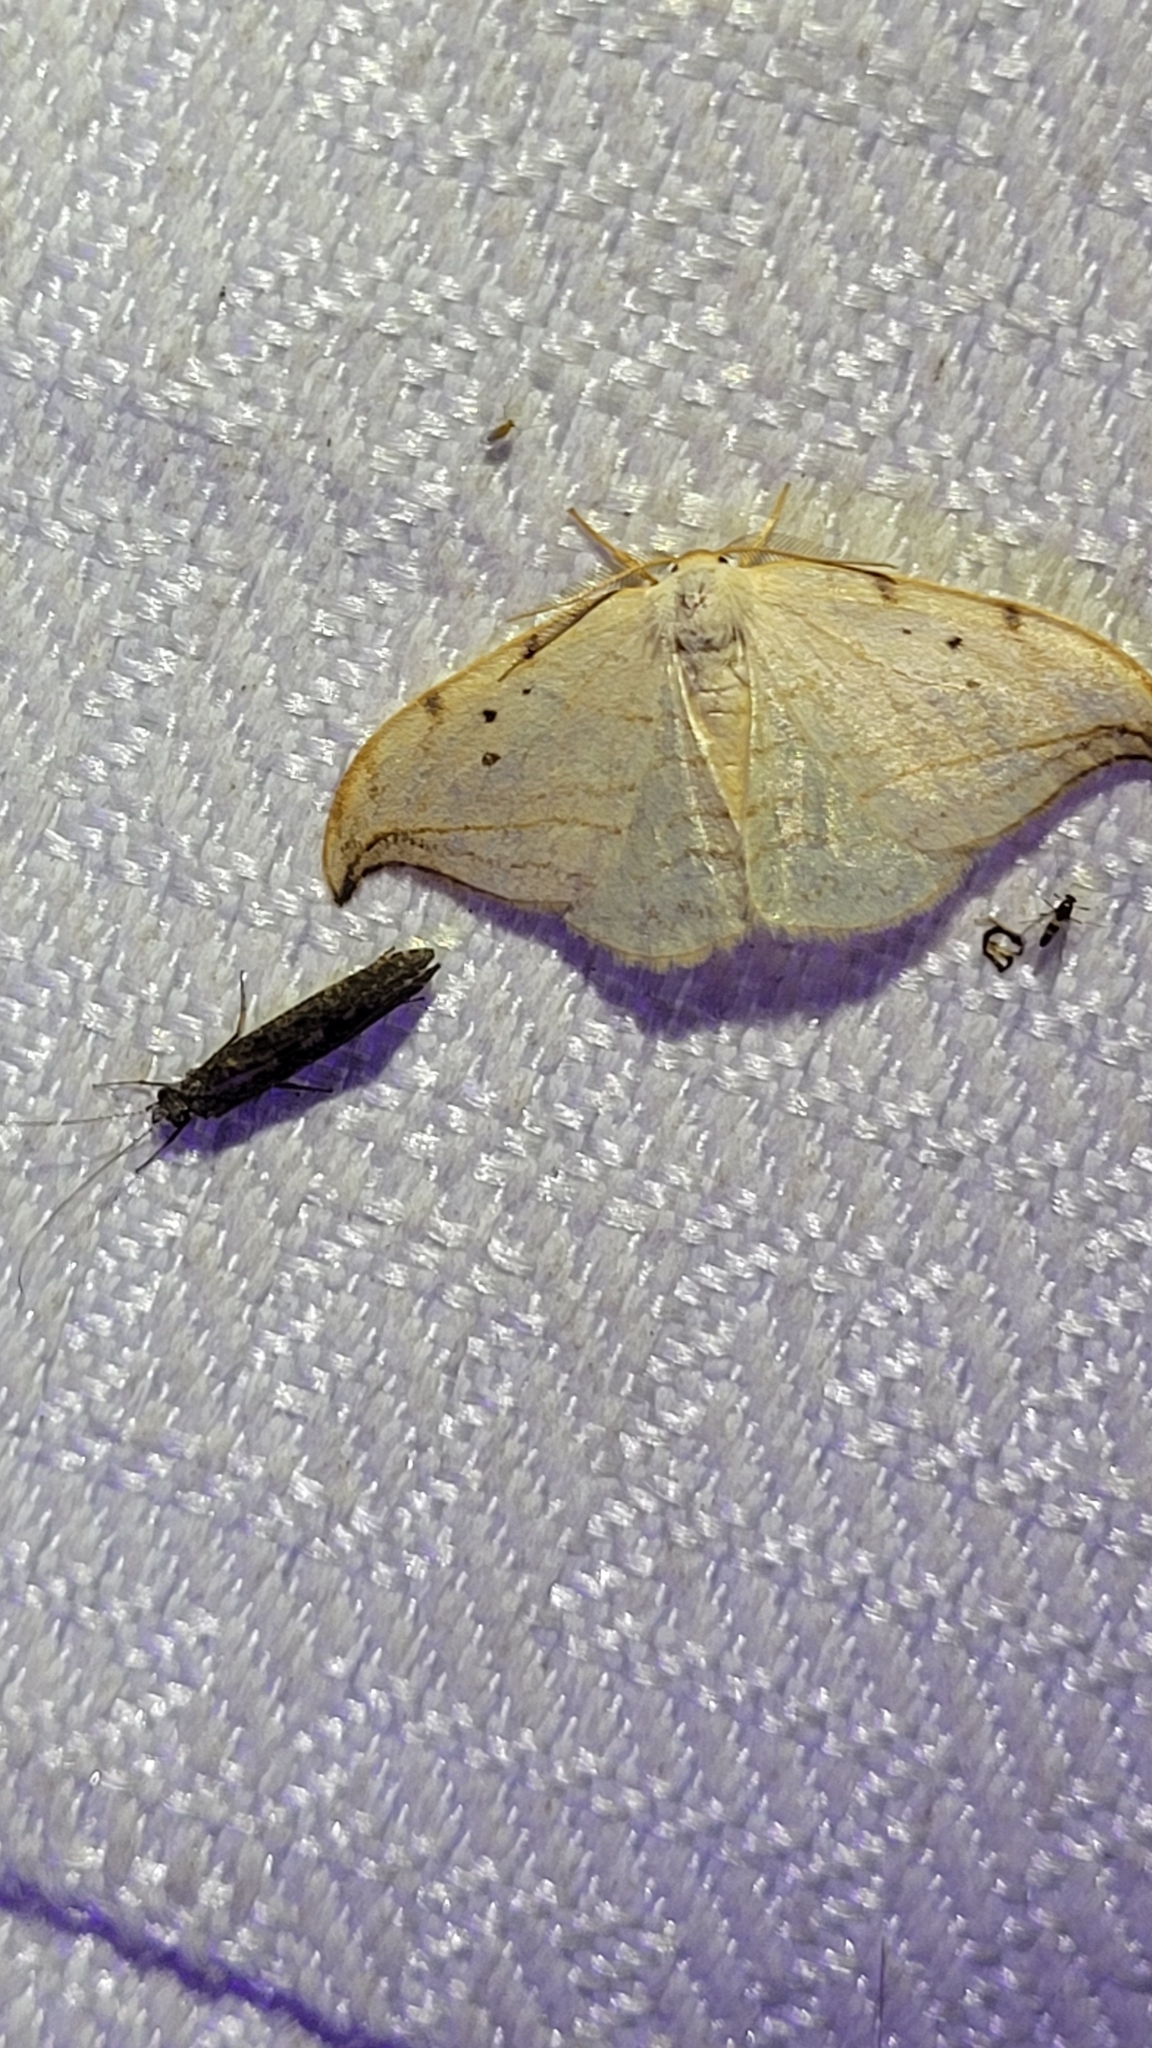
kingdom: Animalia
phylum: Arthropoda
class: Insecta
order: Lepidoptera
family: Drepanidae
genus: Drepana
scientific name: Drepana arcuata
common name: Arched hooktip moth
